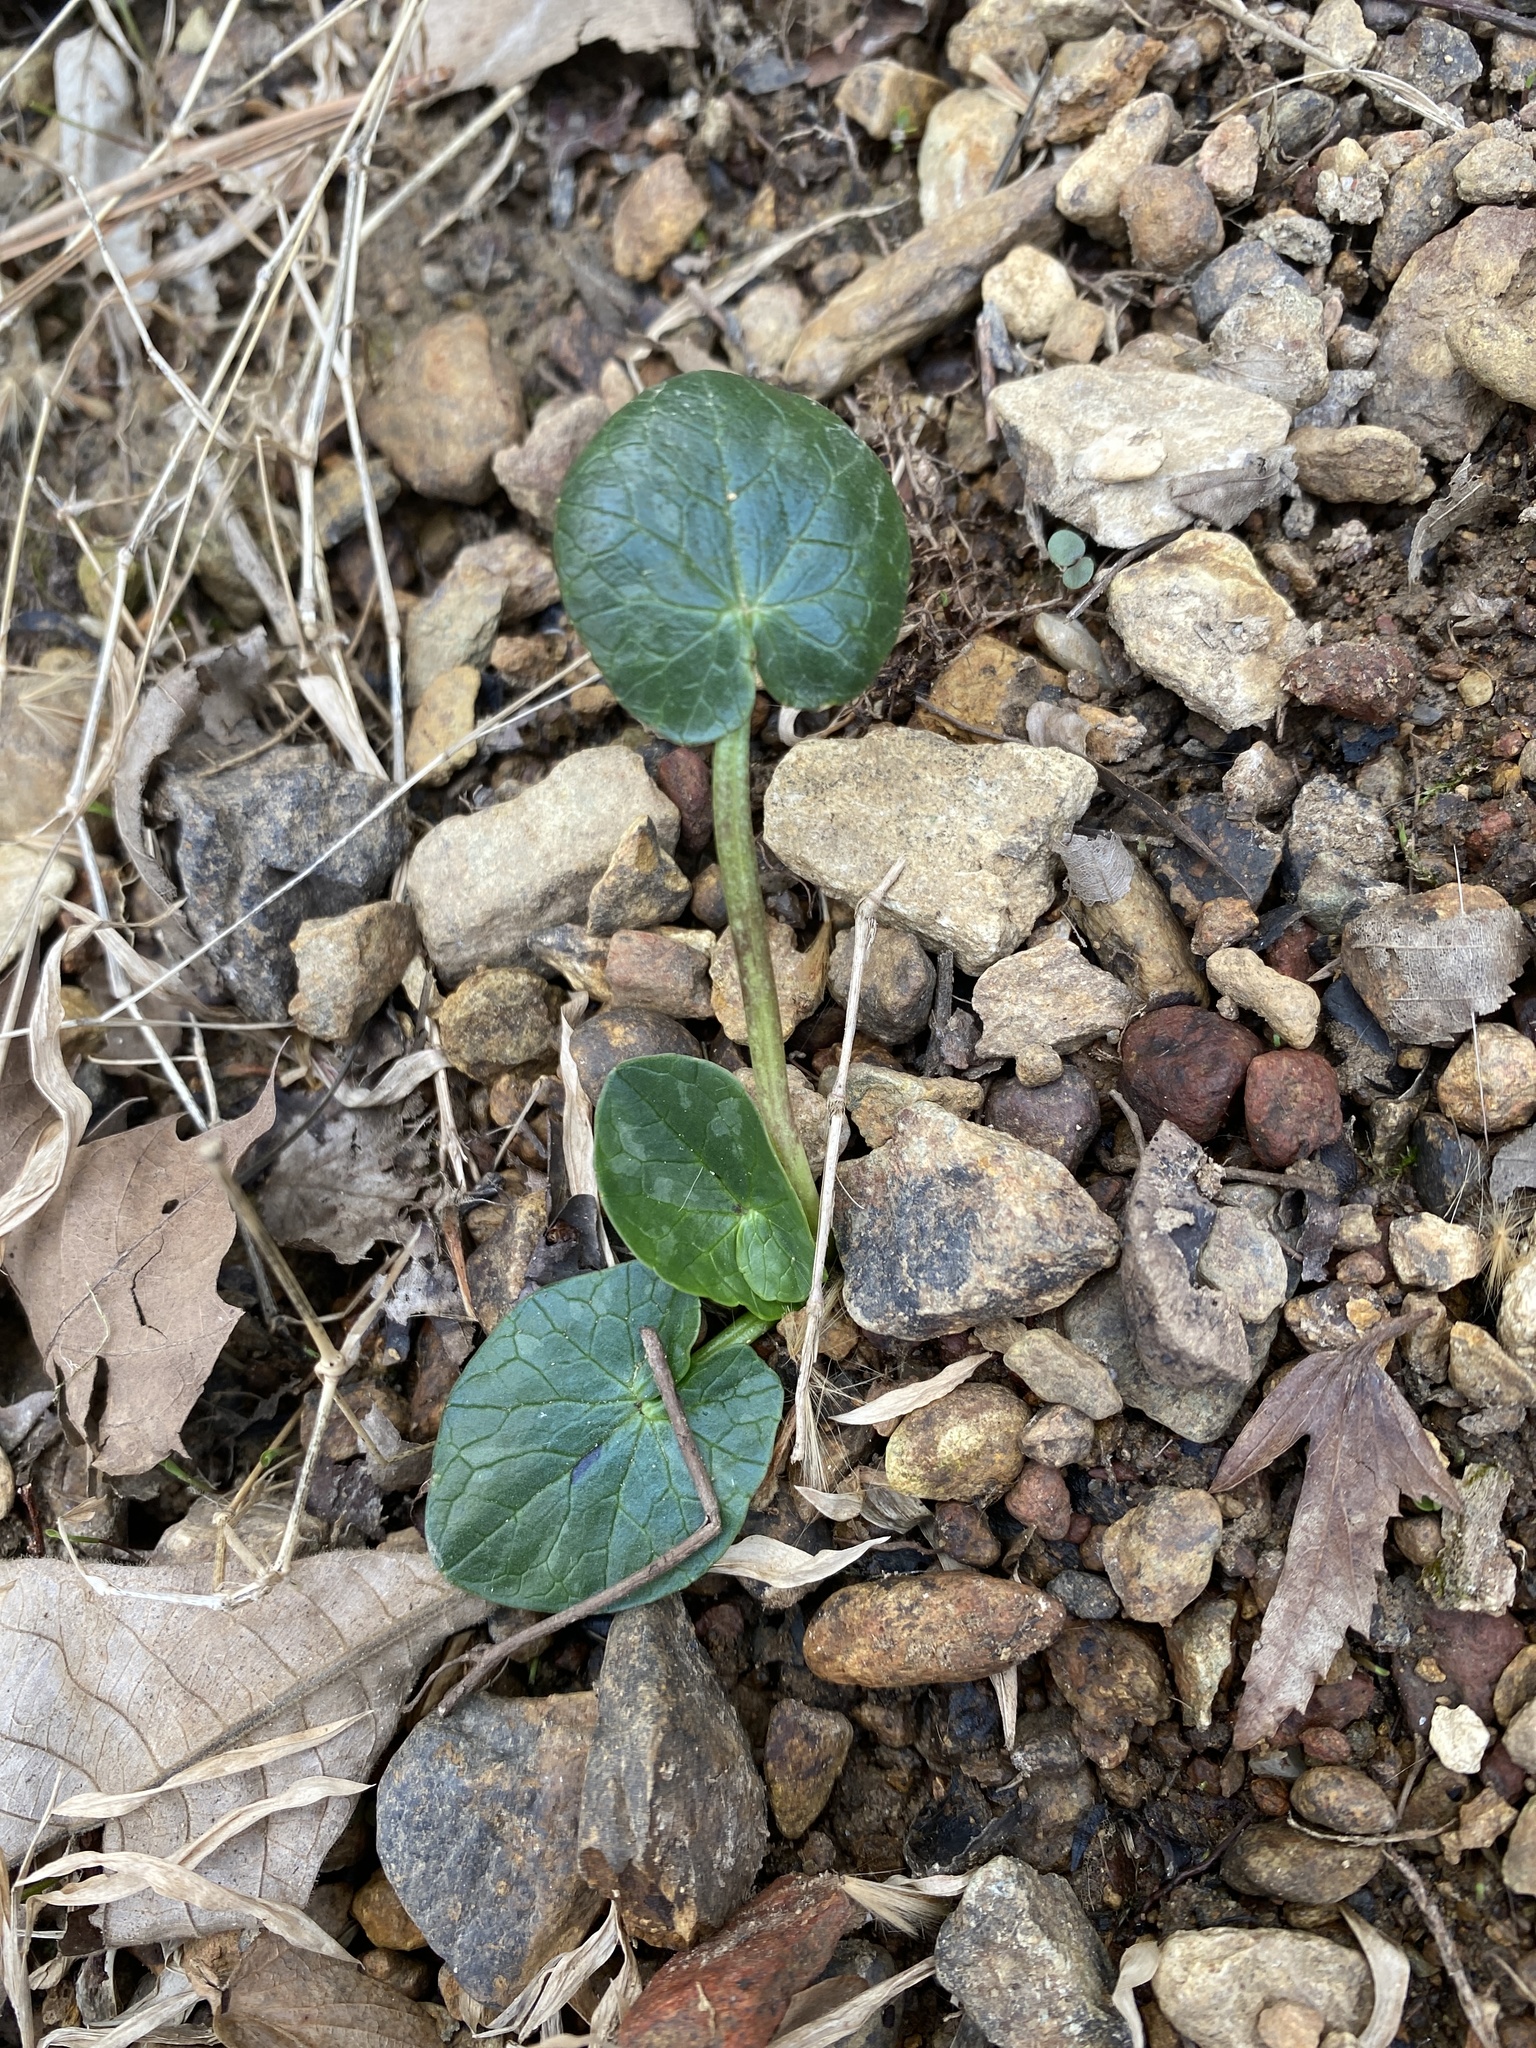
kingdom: Plantae
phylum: Tracheophyta
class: Magnoliopsida
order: Ranunculales
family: Ranunculaceae
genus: Ficaria
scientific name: Ficaria verna
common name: Lesser celandine
